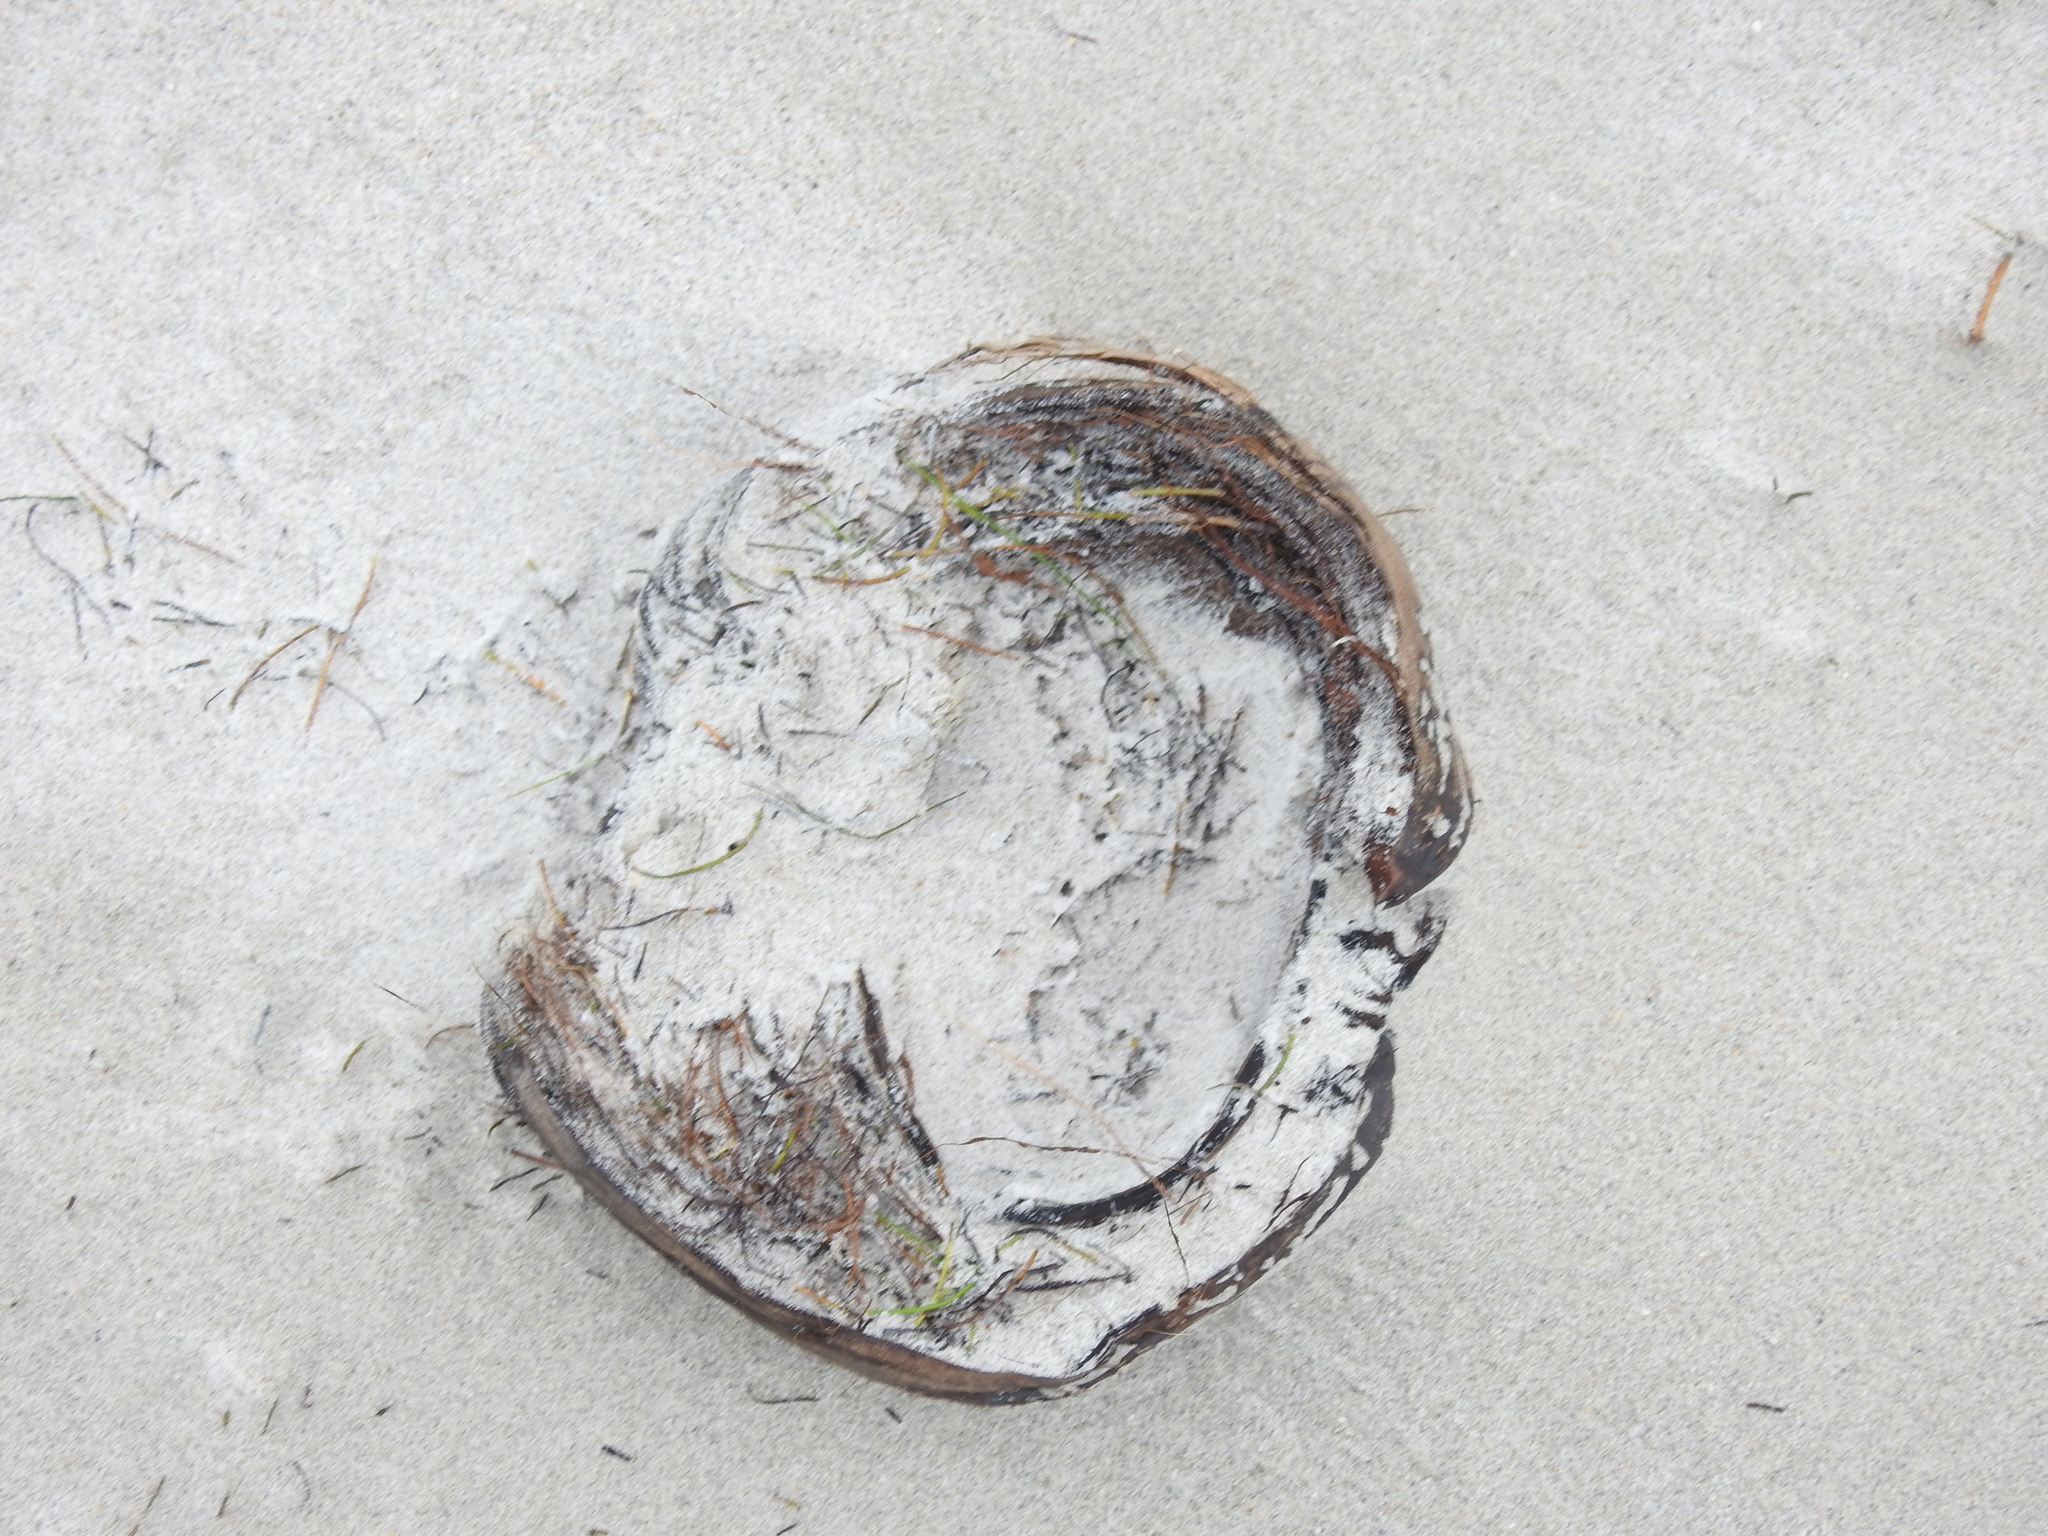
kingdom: Plantae
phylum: Tracheophyta
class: Liliopsida
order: Arecales
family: Arecaceae
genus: Cocos
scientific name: Cocos nucifera
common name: Coconut palm
